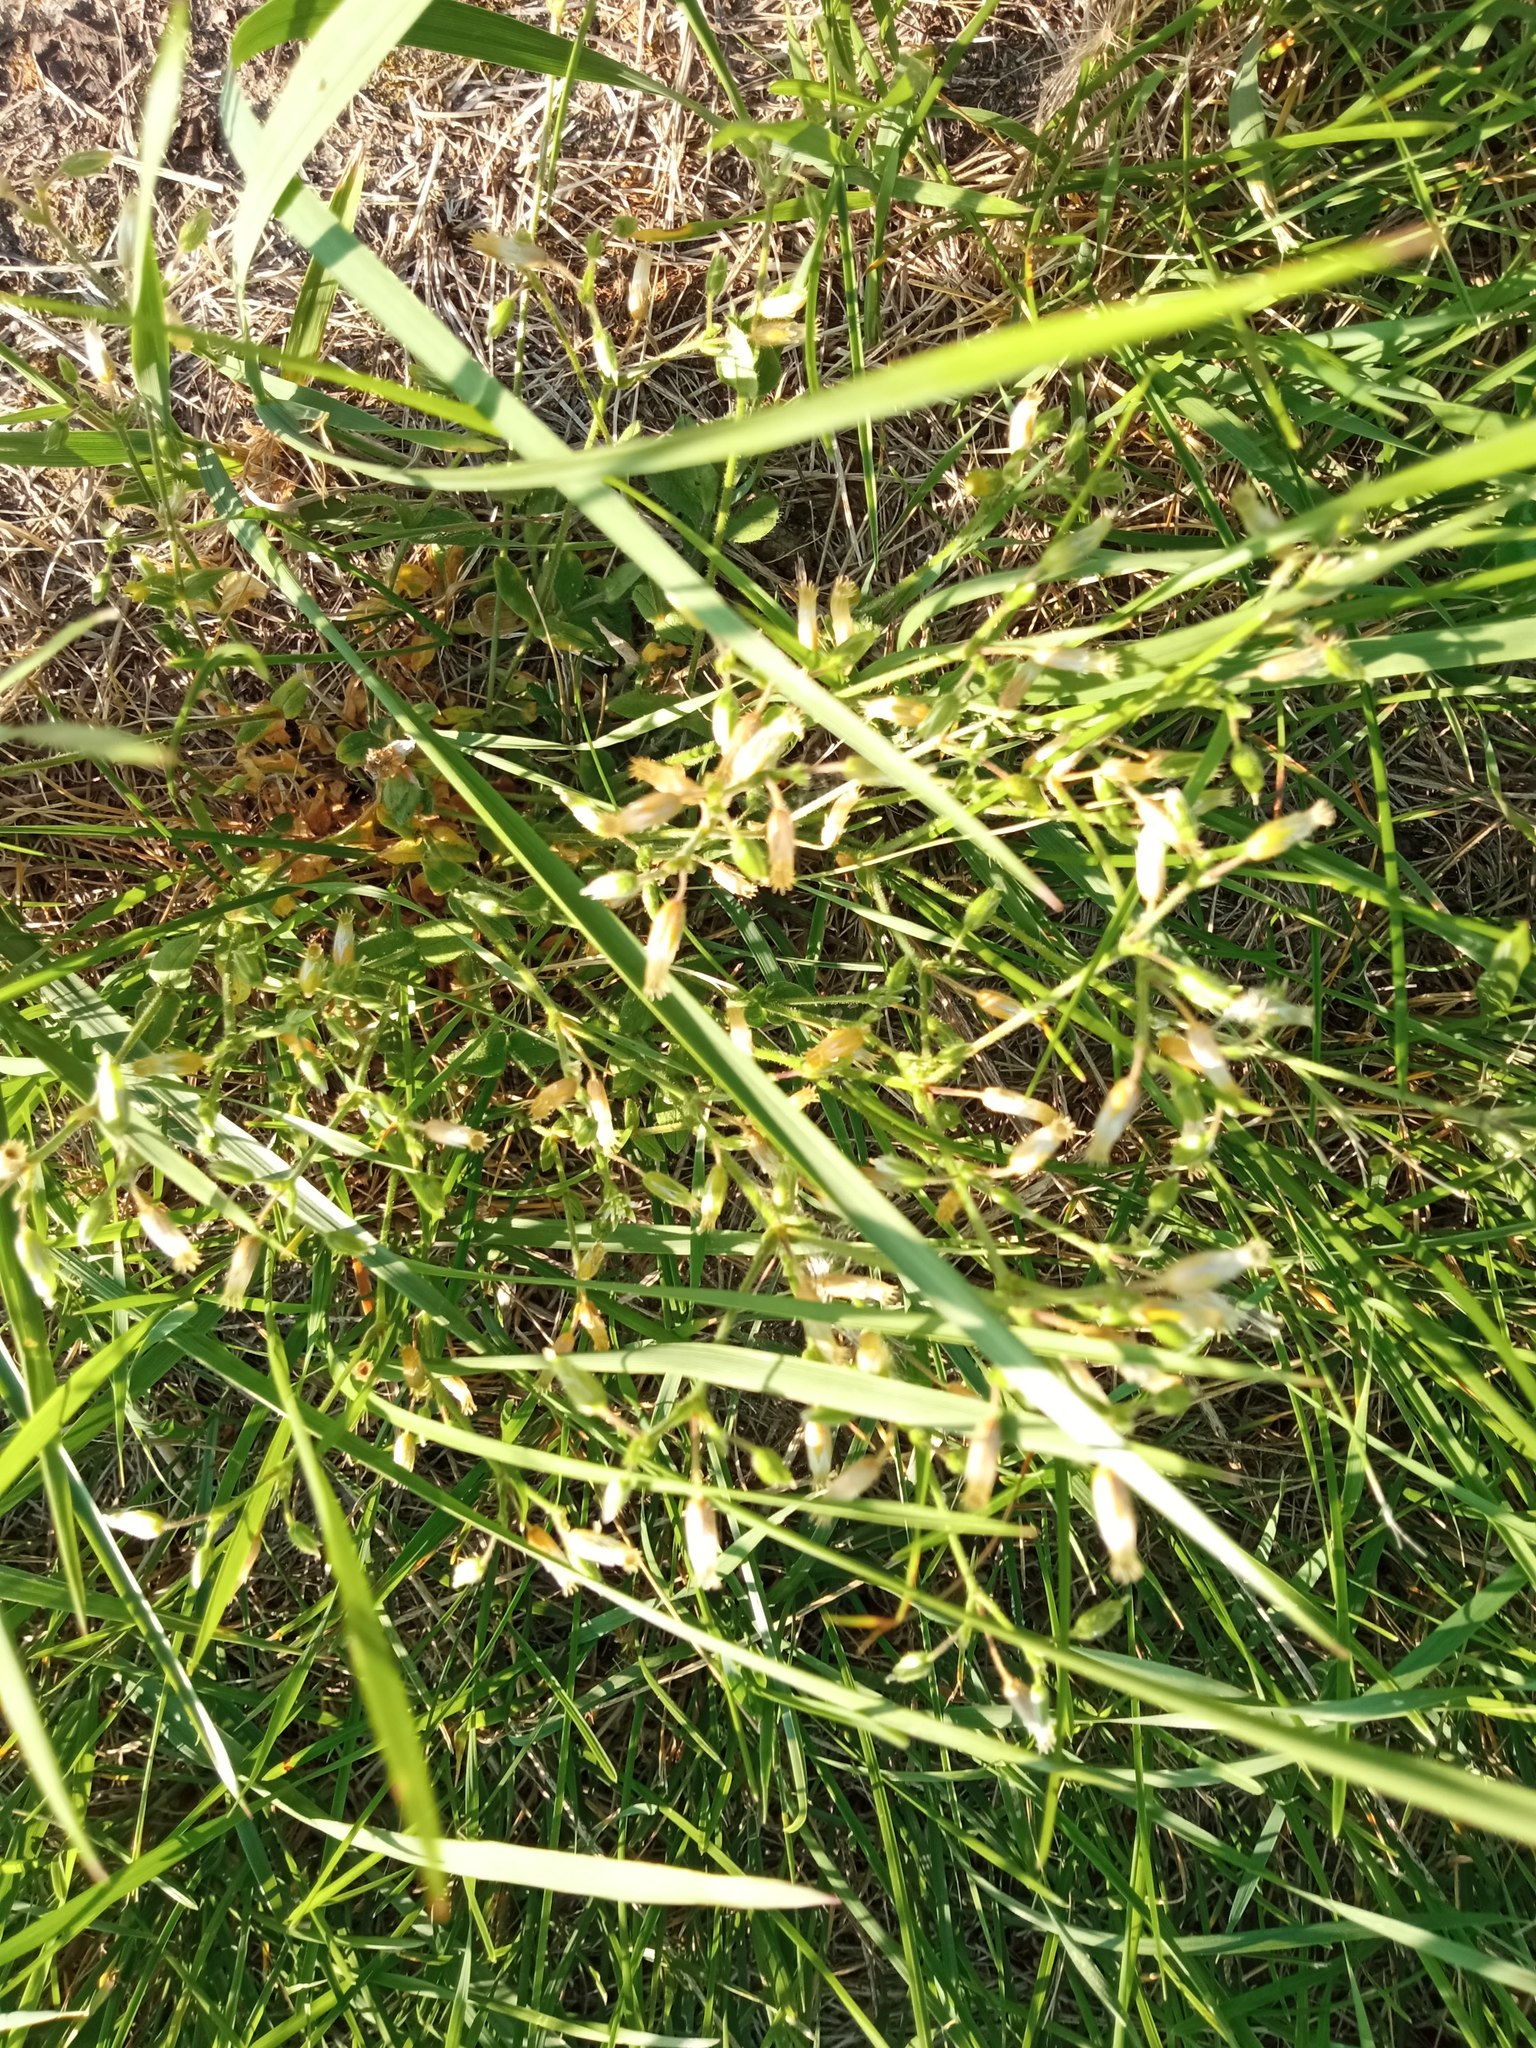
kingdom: Plantae
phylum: Tracheophyta
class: Magnoliopsida
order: Caryophyllales
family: Caryophyllaceae
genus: Cerastium
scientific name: Cerastium holosteoides
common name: Big chickweed
